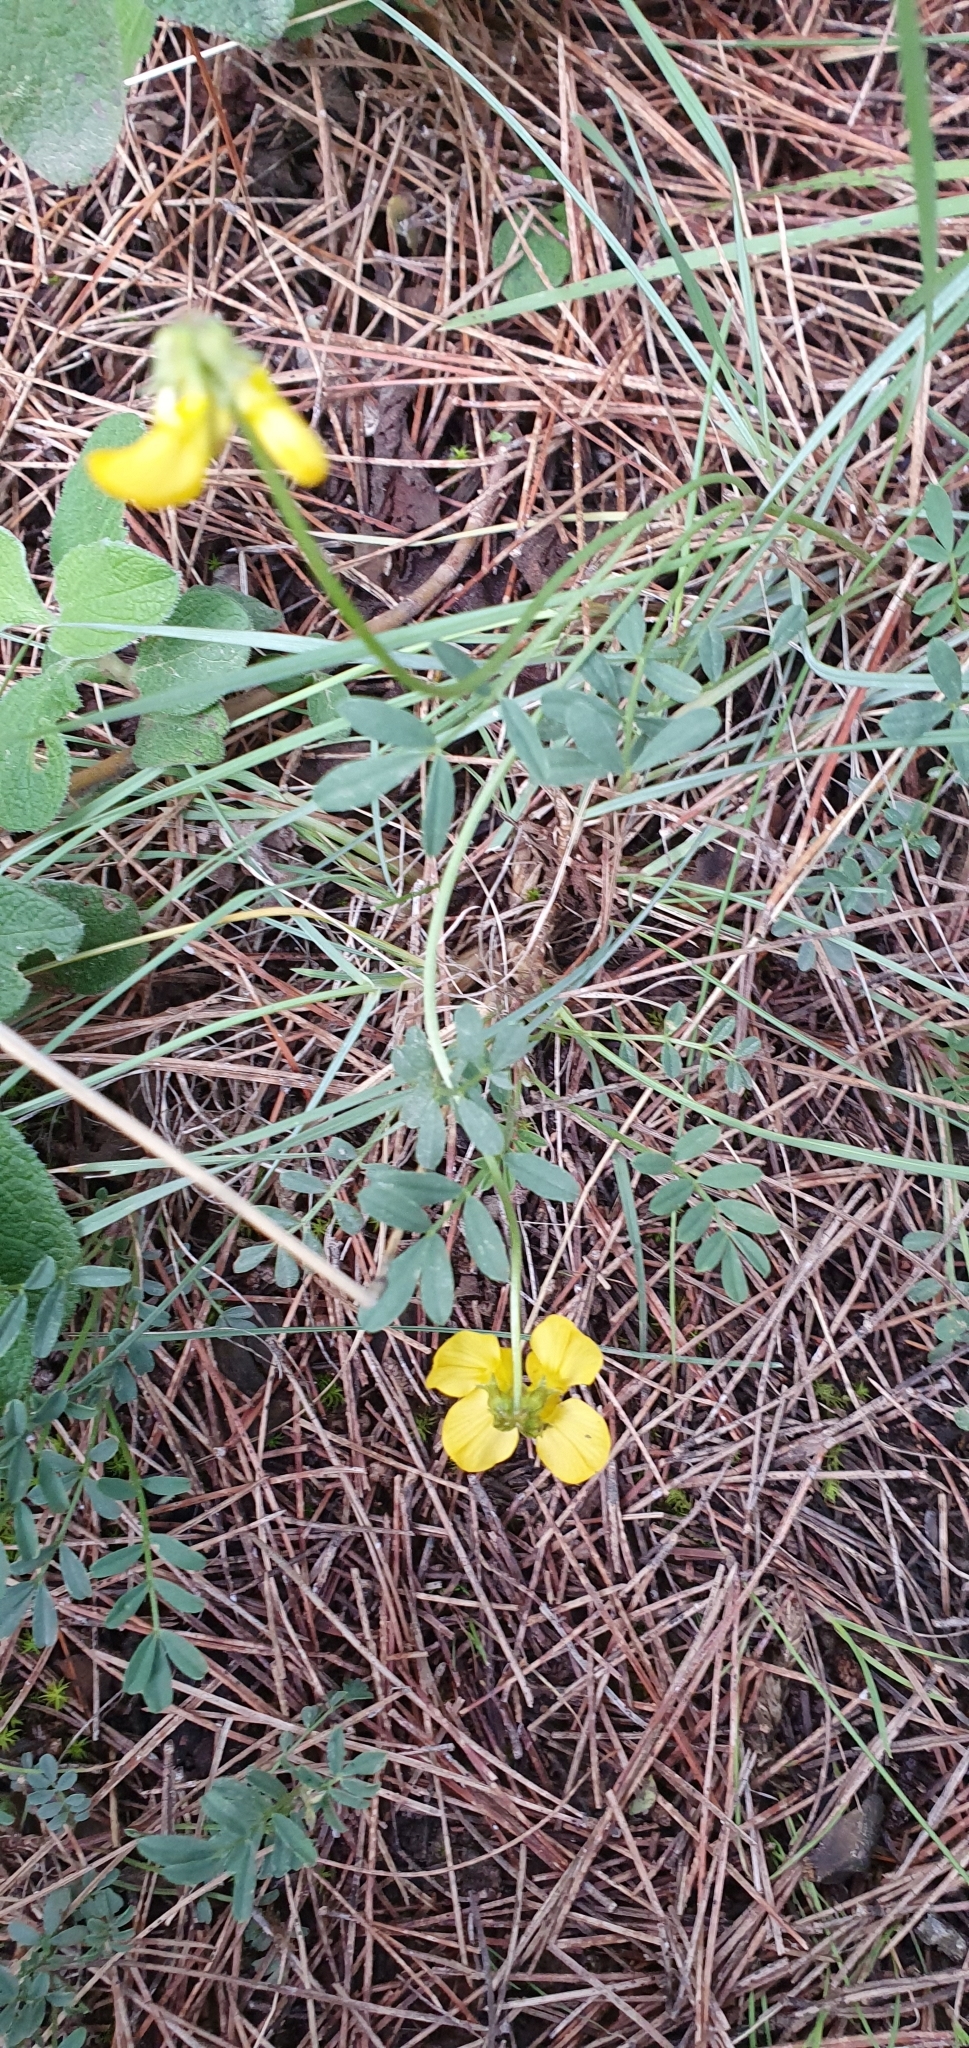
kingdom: Plantae
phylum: Tracheophyta
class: Magnoliopsida
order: Fabales
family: Fabaceae
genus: Hippocrepis
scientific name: Hippocrepis atlantica
